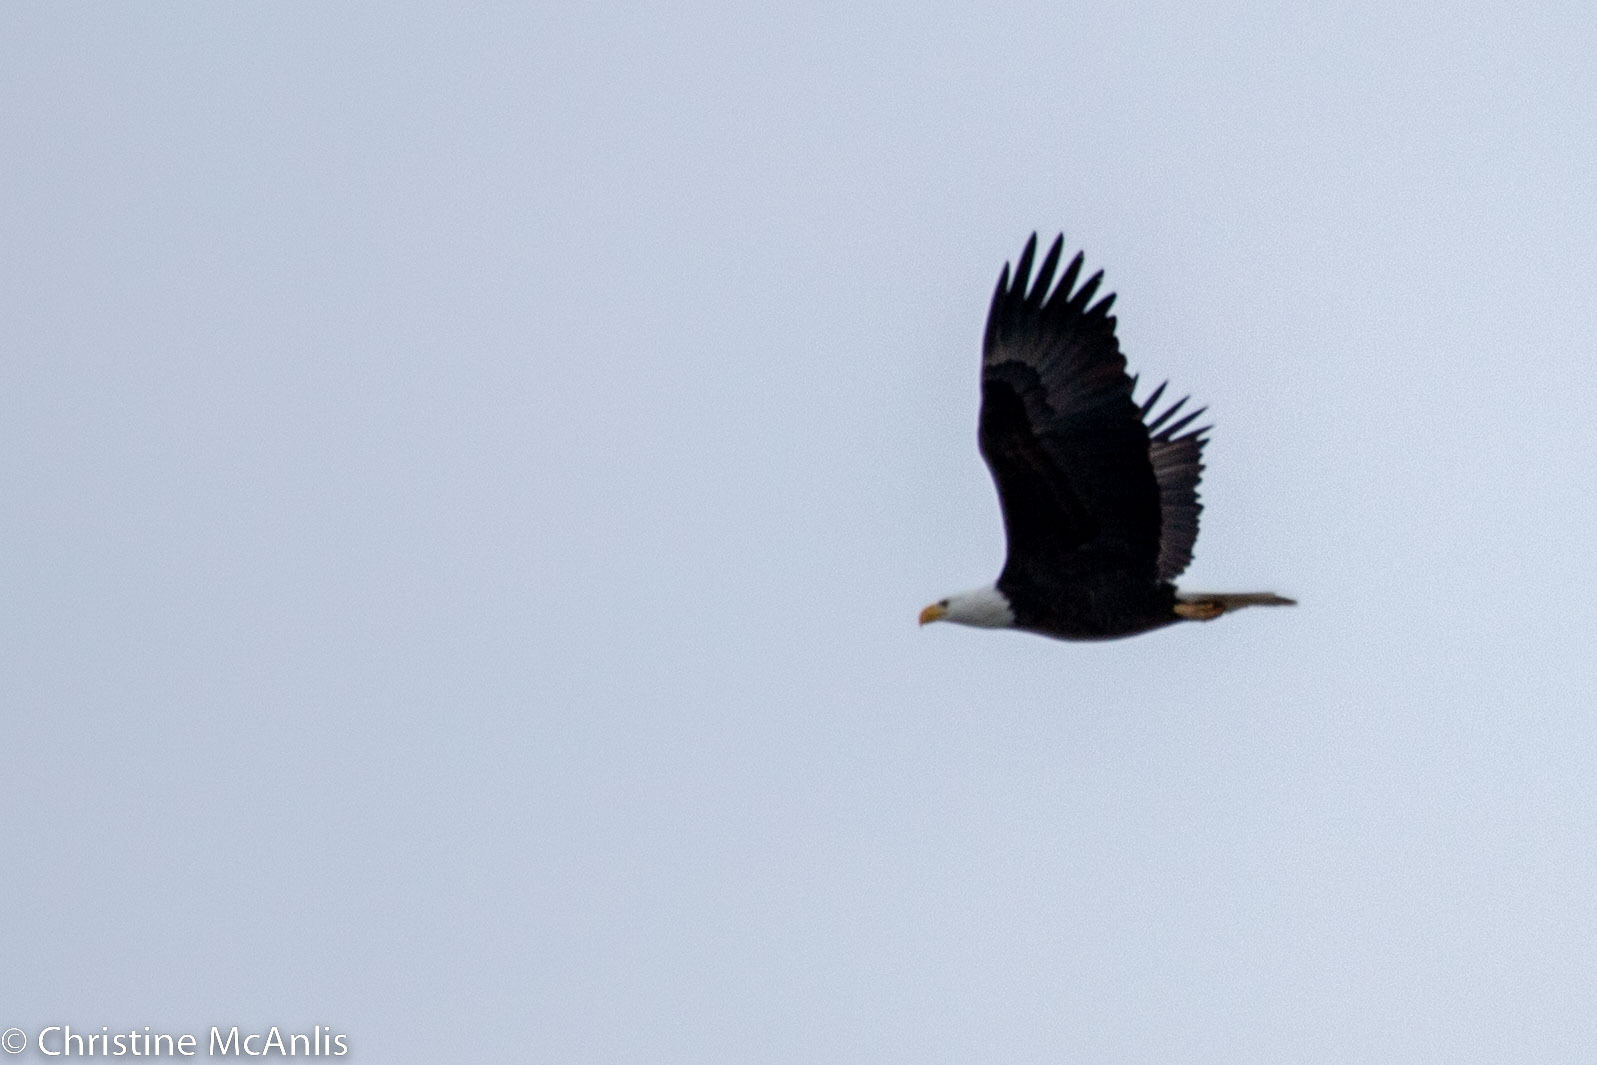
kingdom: Animalia
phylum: Chordata
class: Aves
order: Accipitriformes
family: Accipitridae
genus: Haliaeetus
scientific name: Haliaeetus leucocephalus
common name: Bald eagle
